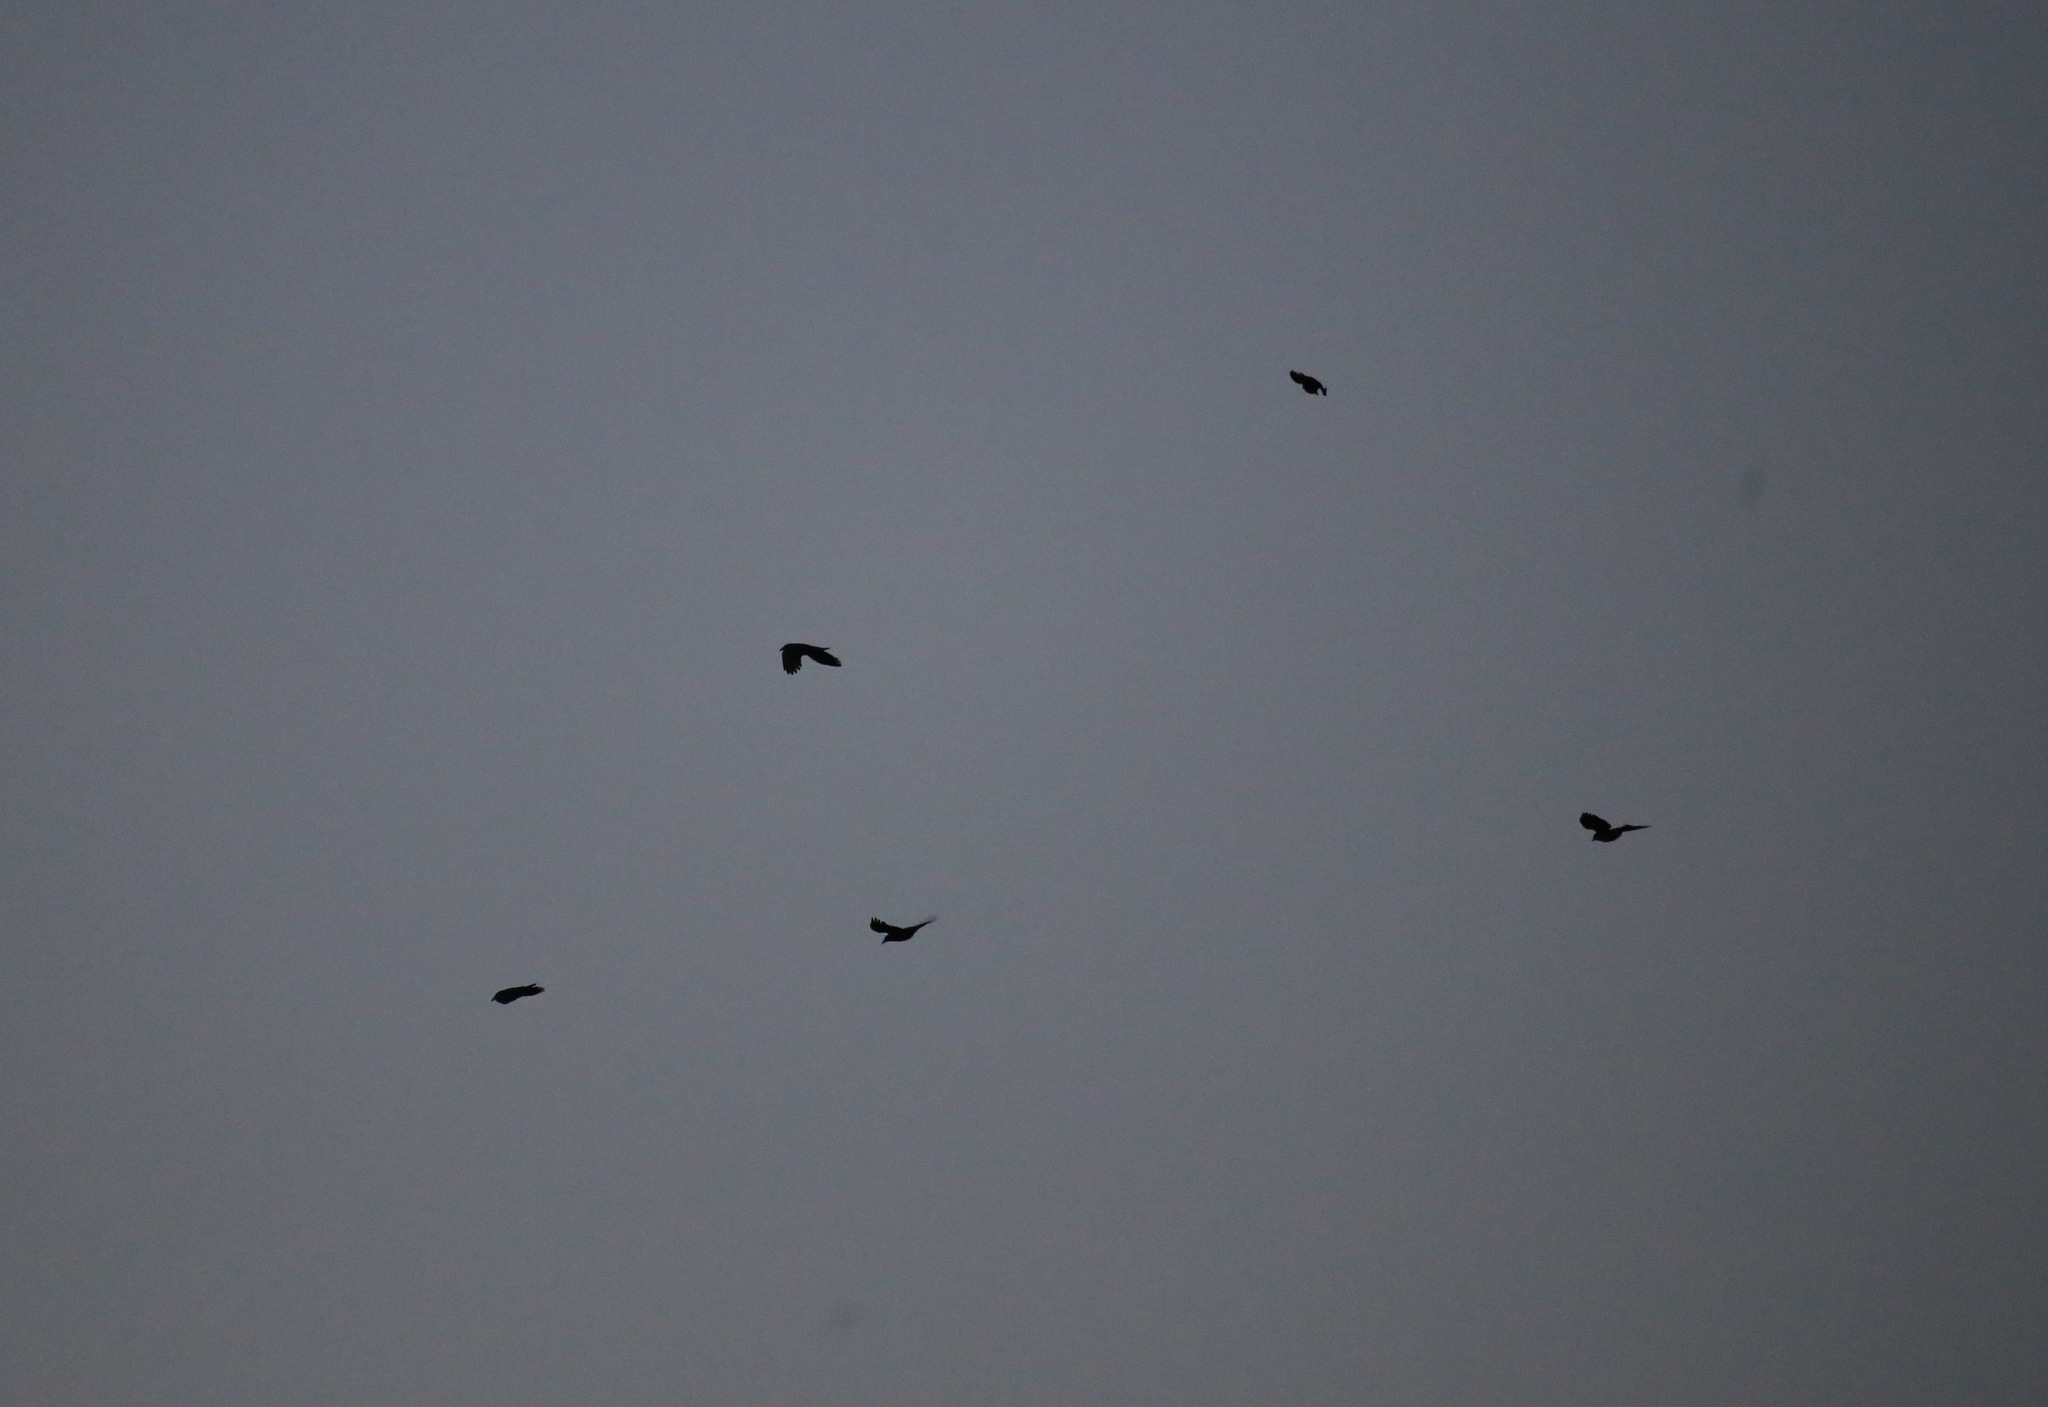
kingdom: Animalia
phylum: Chordata
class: Aves
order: Passeriformes
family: Corvidae
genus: Corvus
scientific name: Corvus brachyrhynchos
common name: American crow
